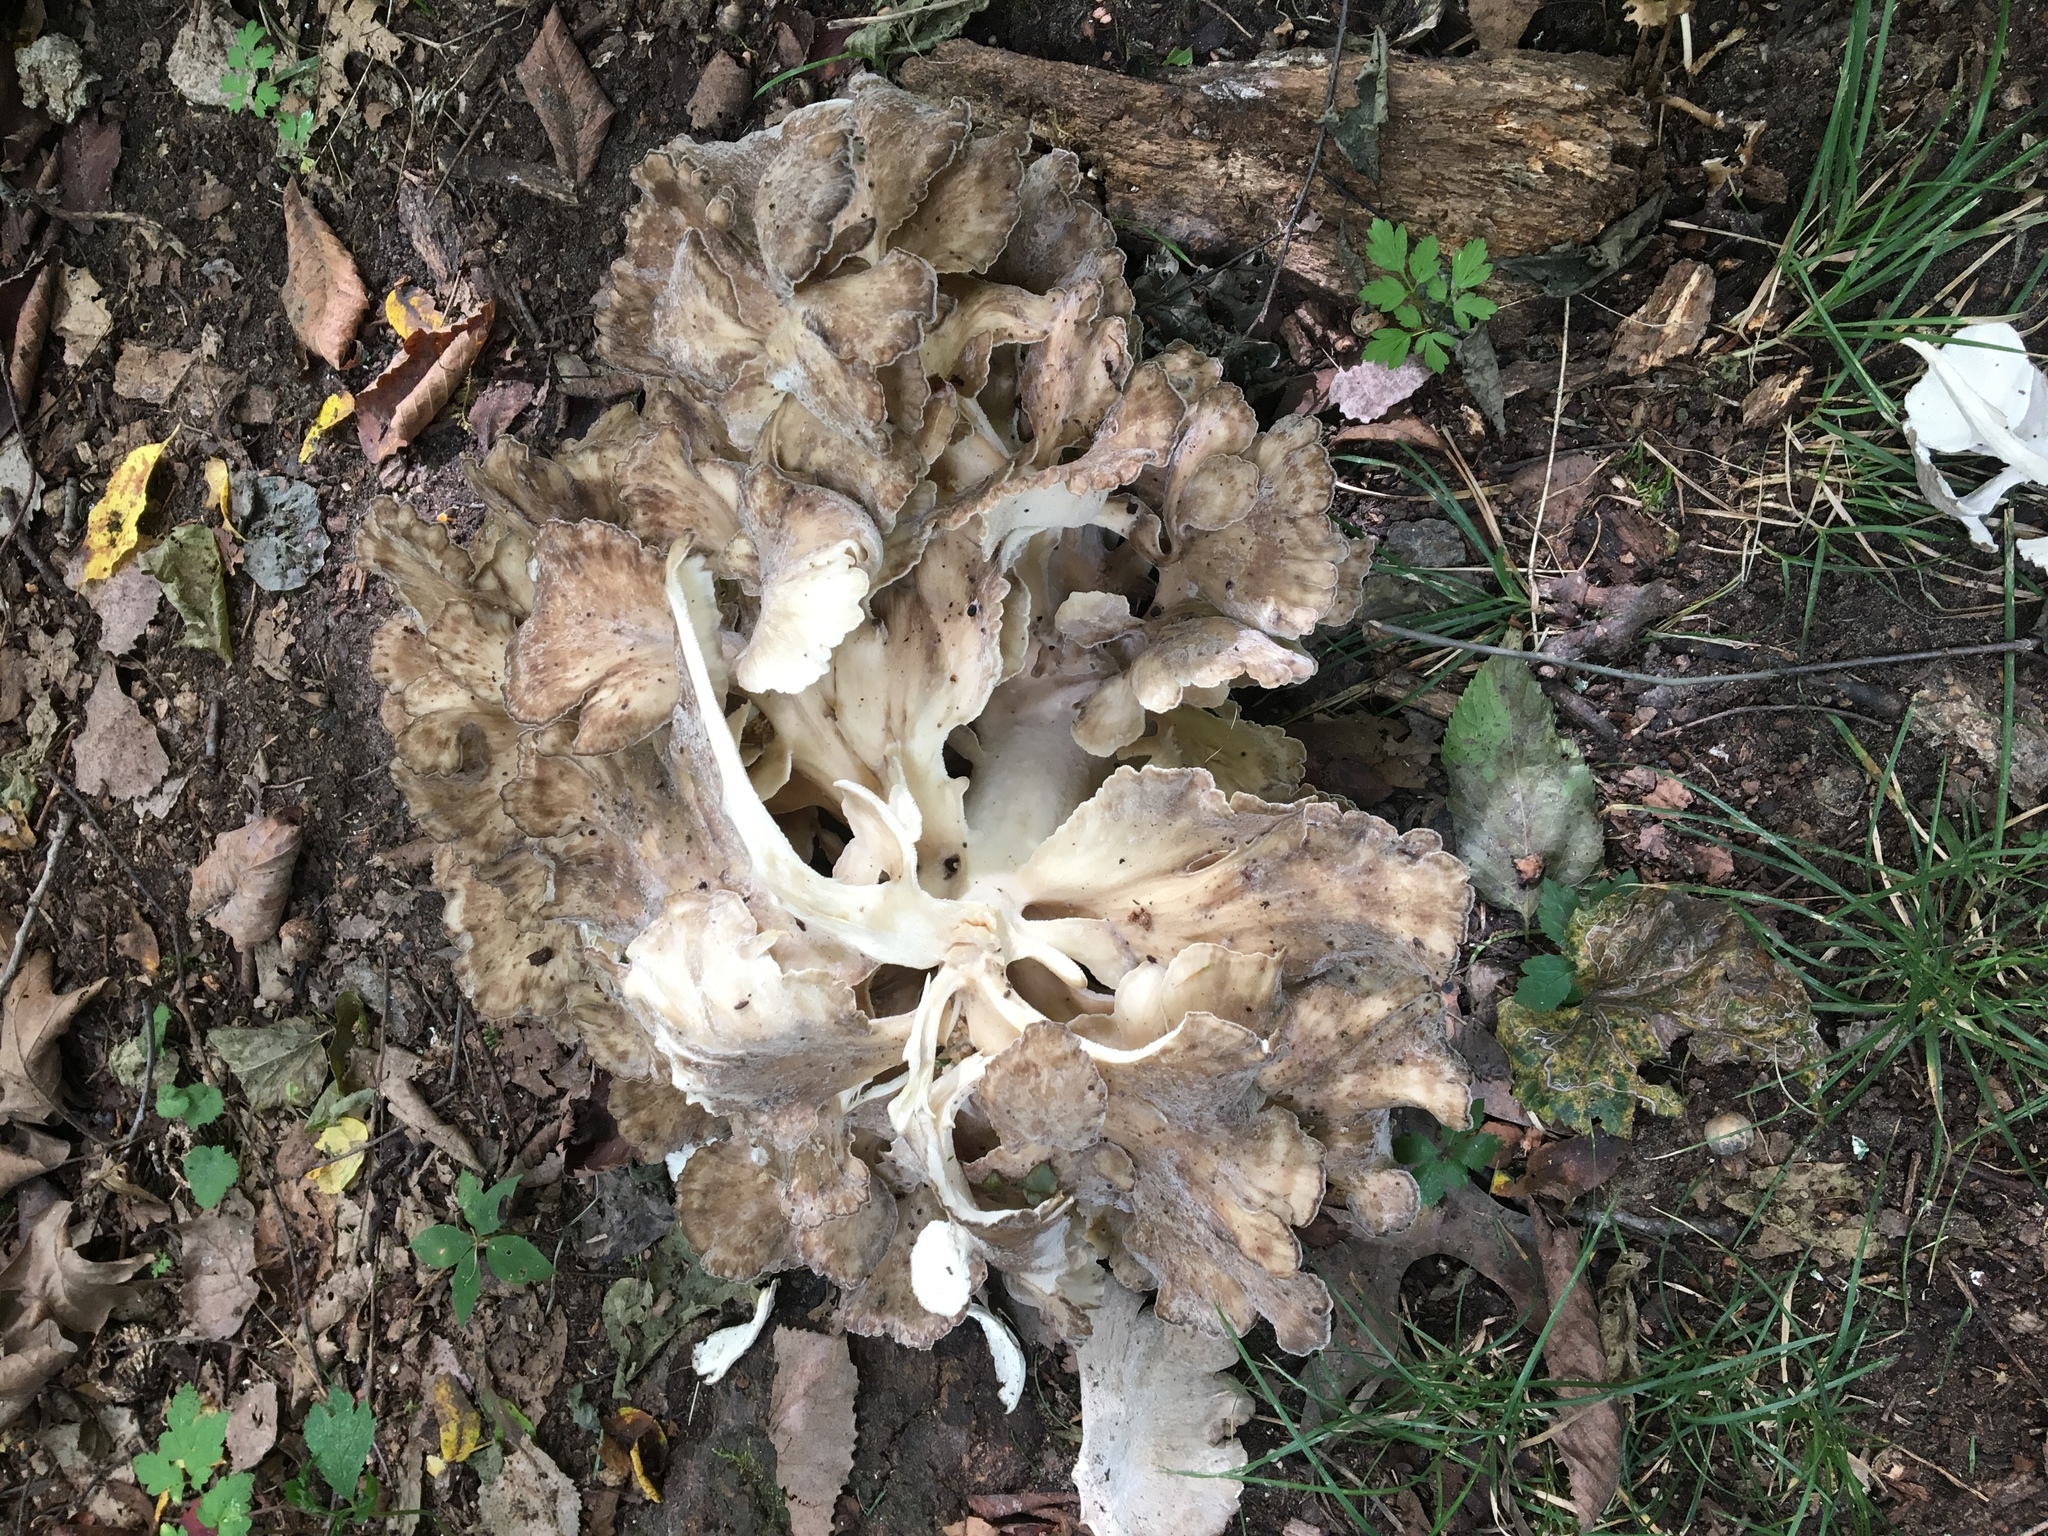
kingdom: Fungi
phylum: Basidiomycota
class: Agaricomycetes
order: Polyporales
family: Grifolaceae
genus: Grifola
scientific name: Grifola frondosa
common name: Hen of the woods
